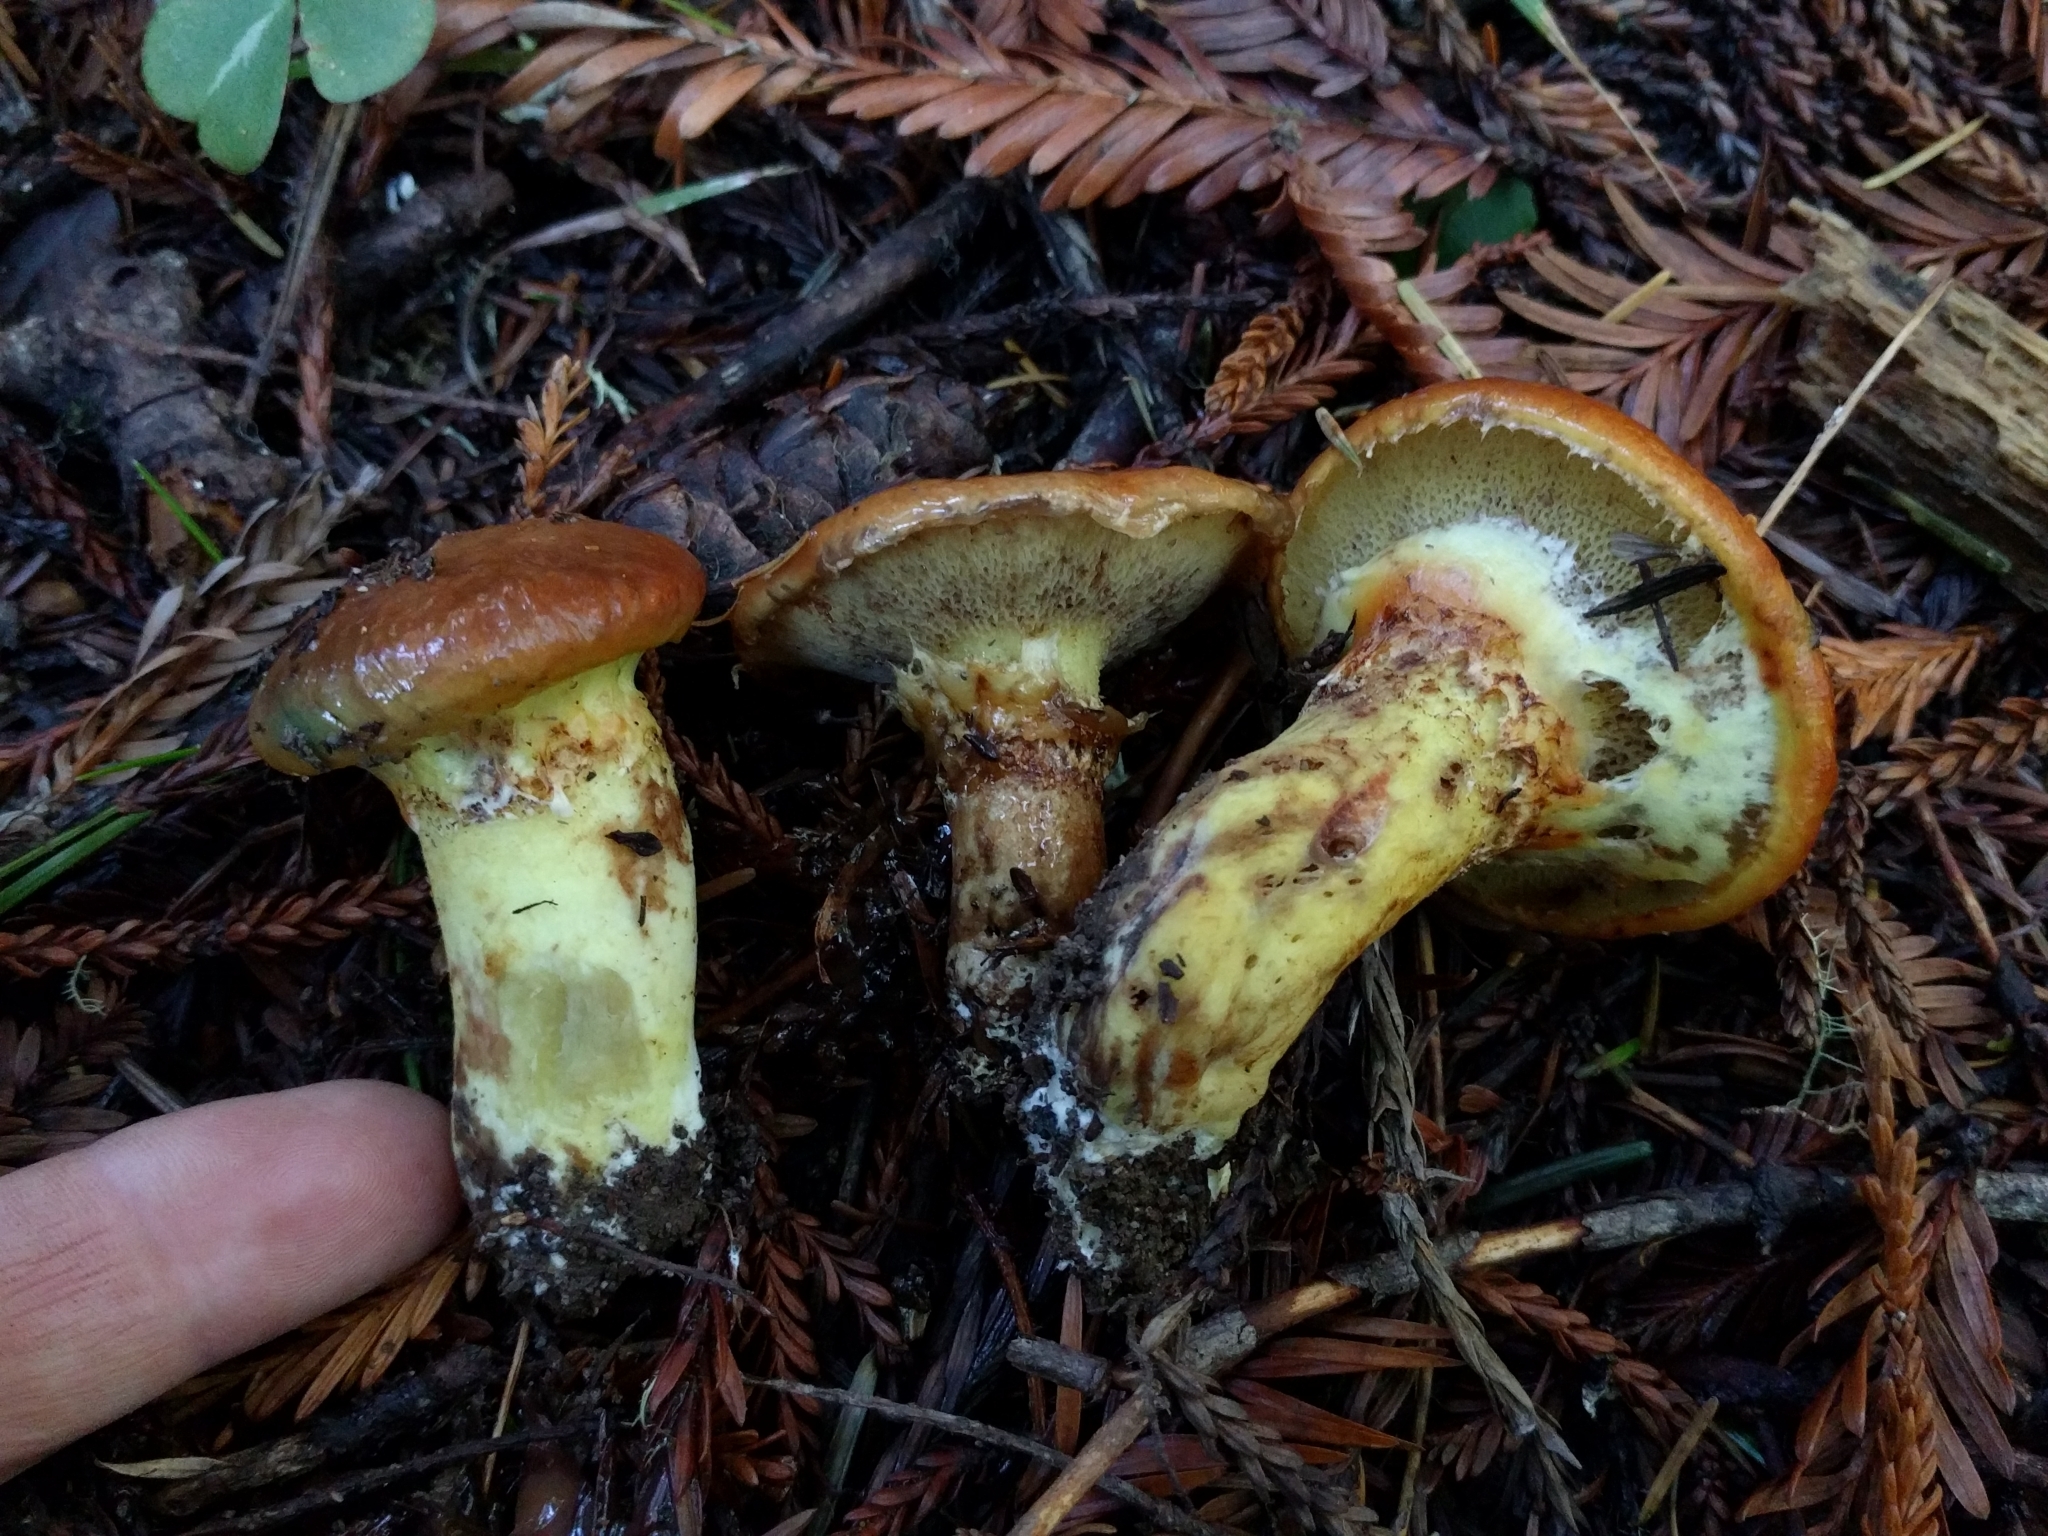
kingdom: Fungi
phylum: Basidiomycota
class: Agaricomycetes
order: Boletales
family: Suillaceae
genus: Suillus
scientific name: Suillus ponderosus
